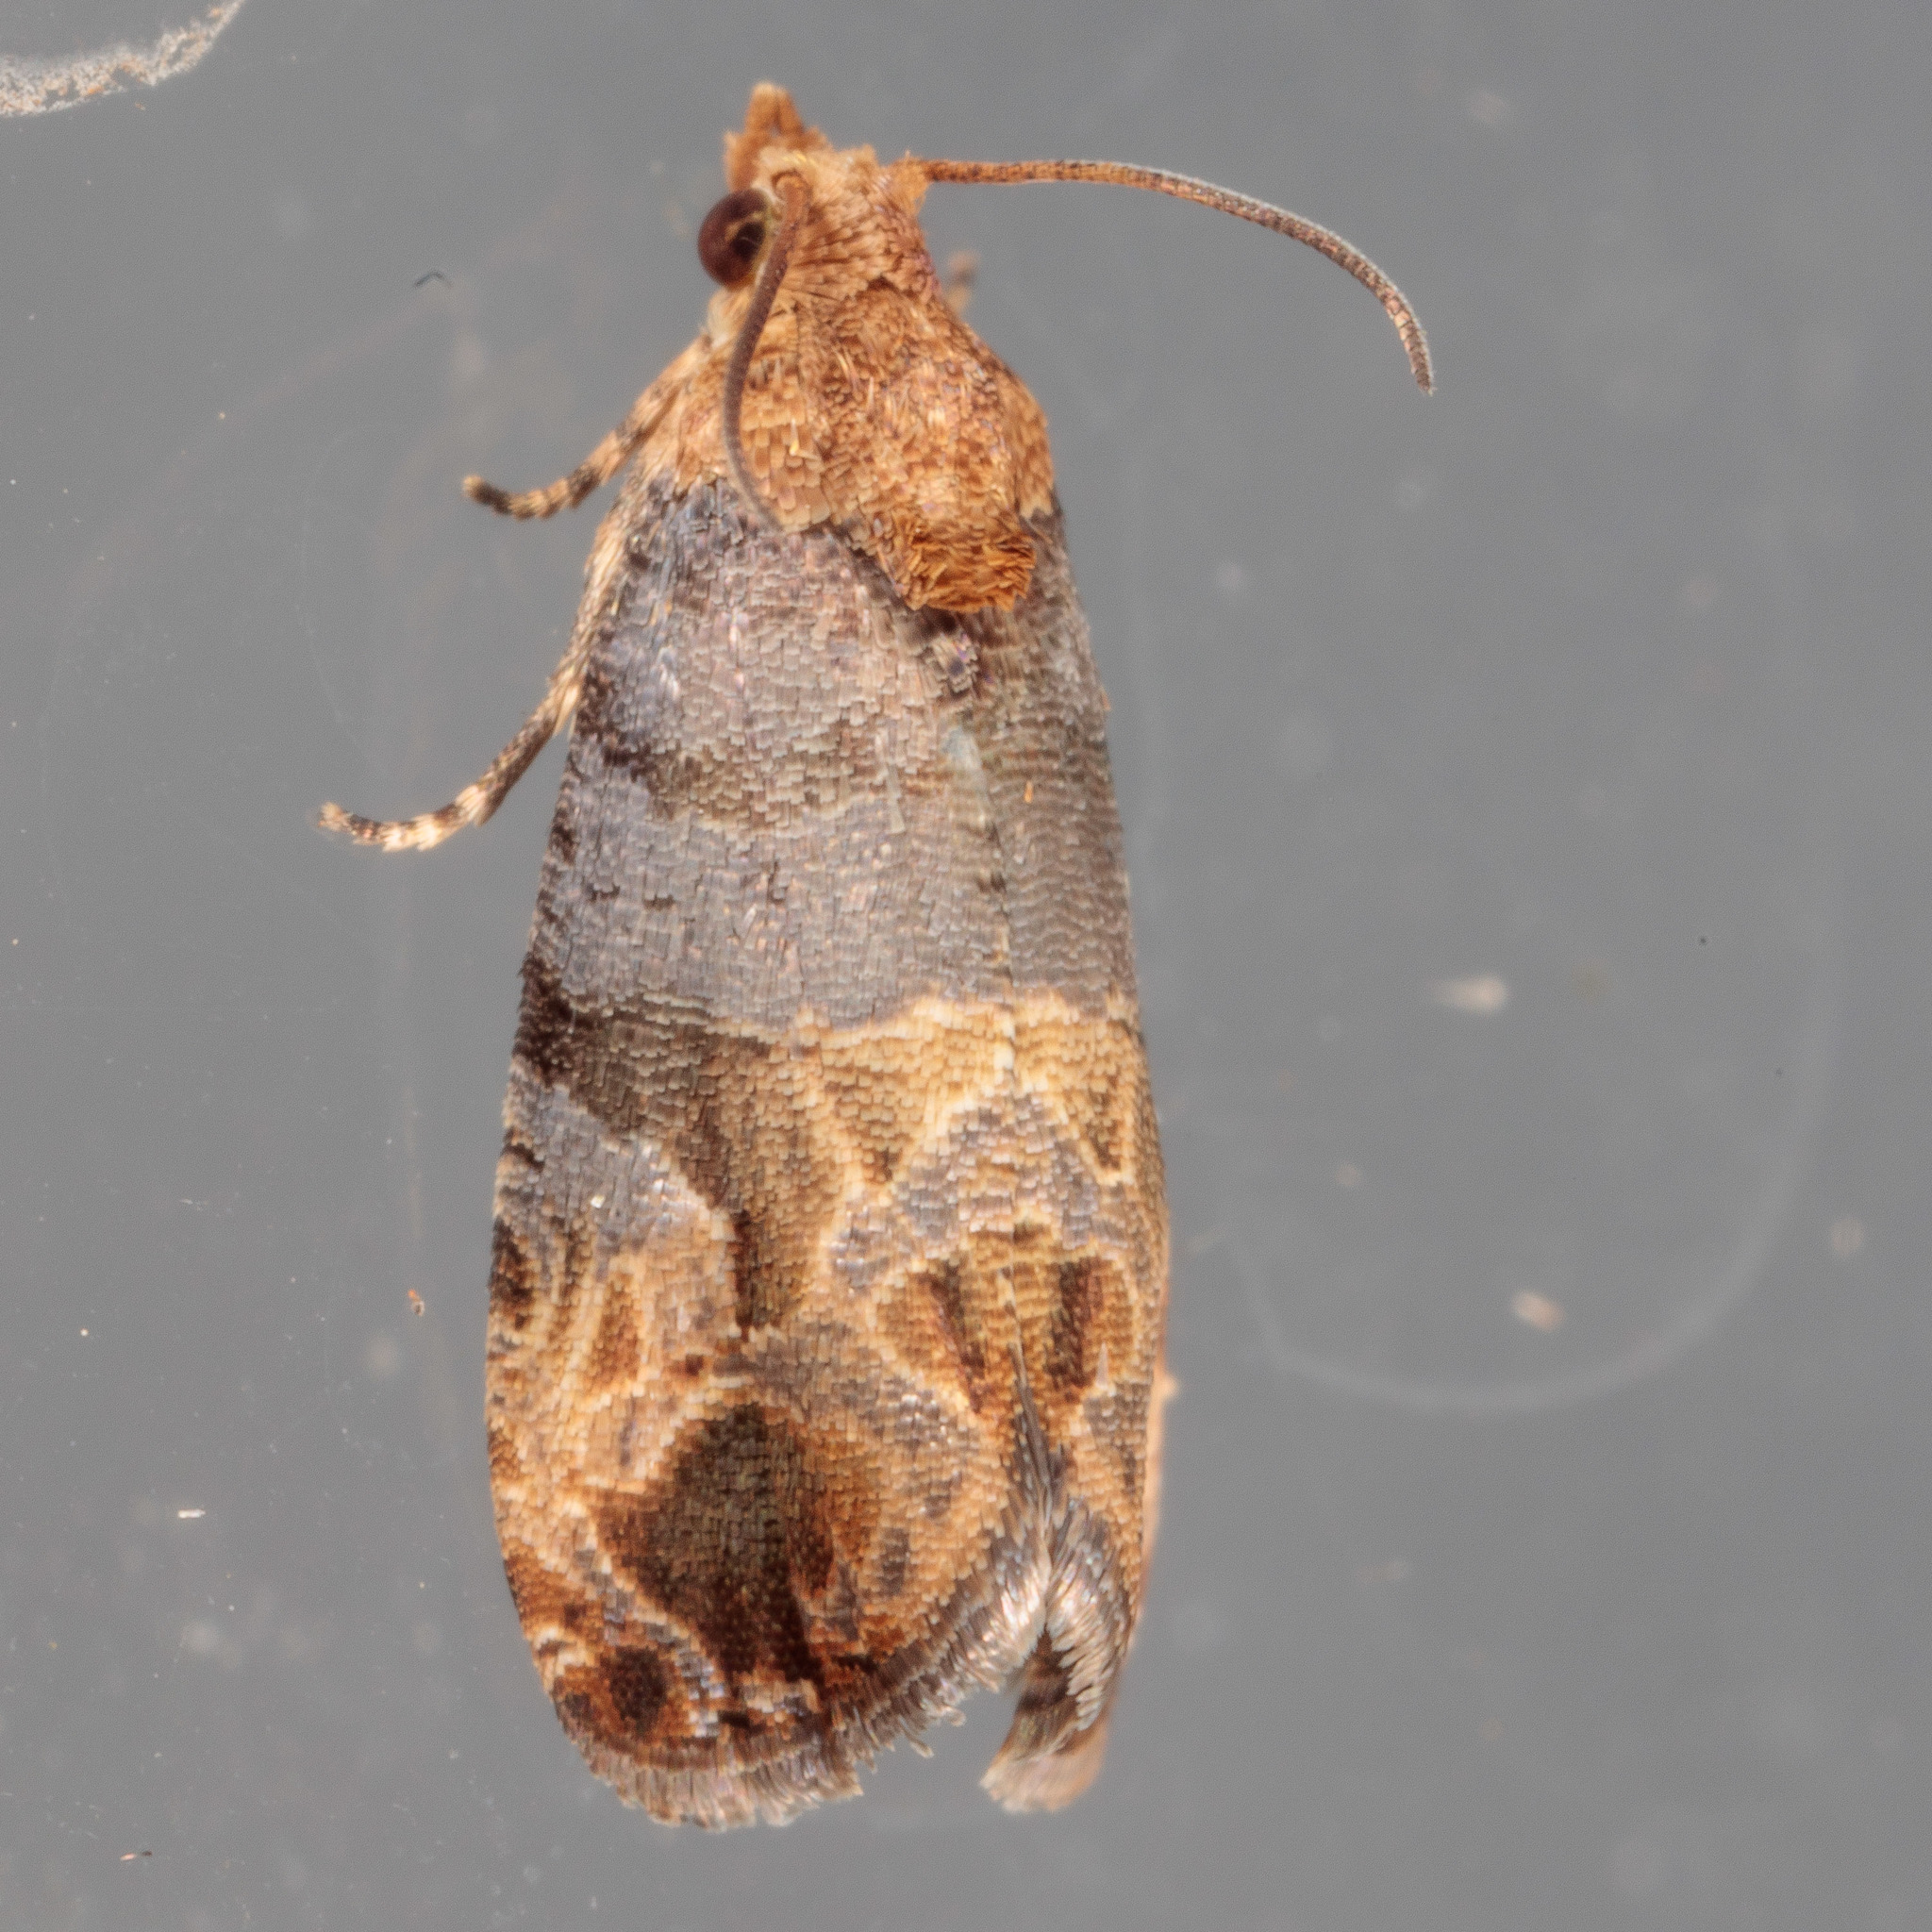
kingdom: Animalia
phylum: Arthropoda
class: Insecta
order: Lepidoptera
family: Tortricidae
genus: Paralobesia
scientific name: Paralobesia viteana
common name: Grape berry moth
